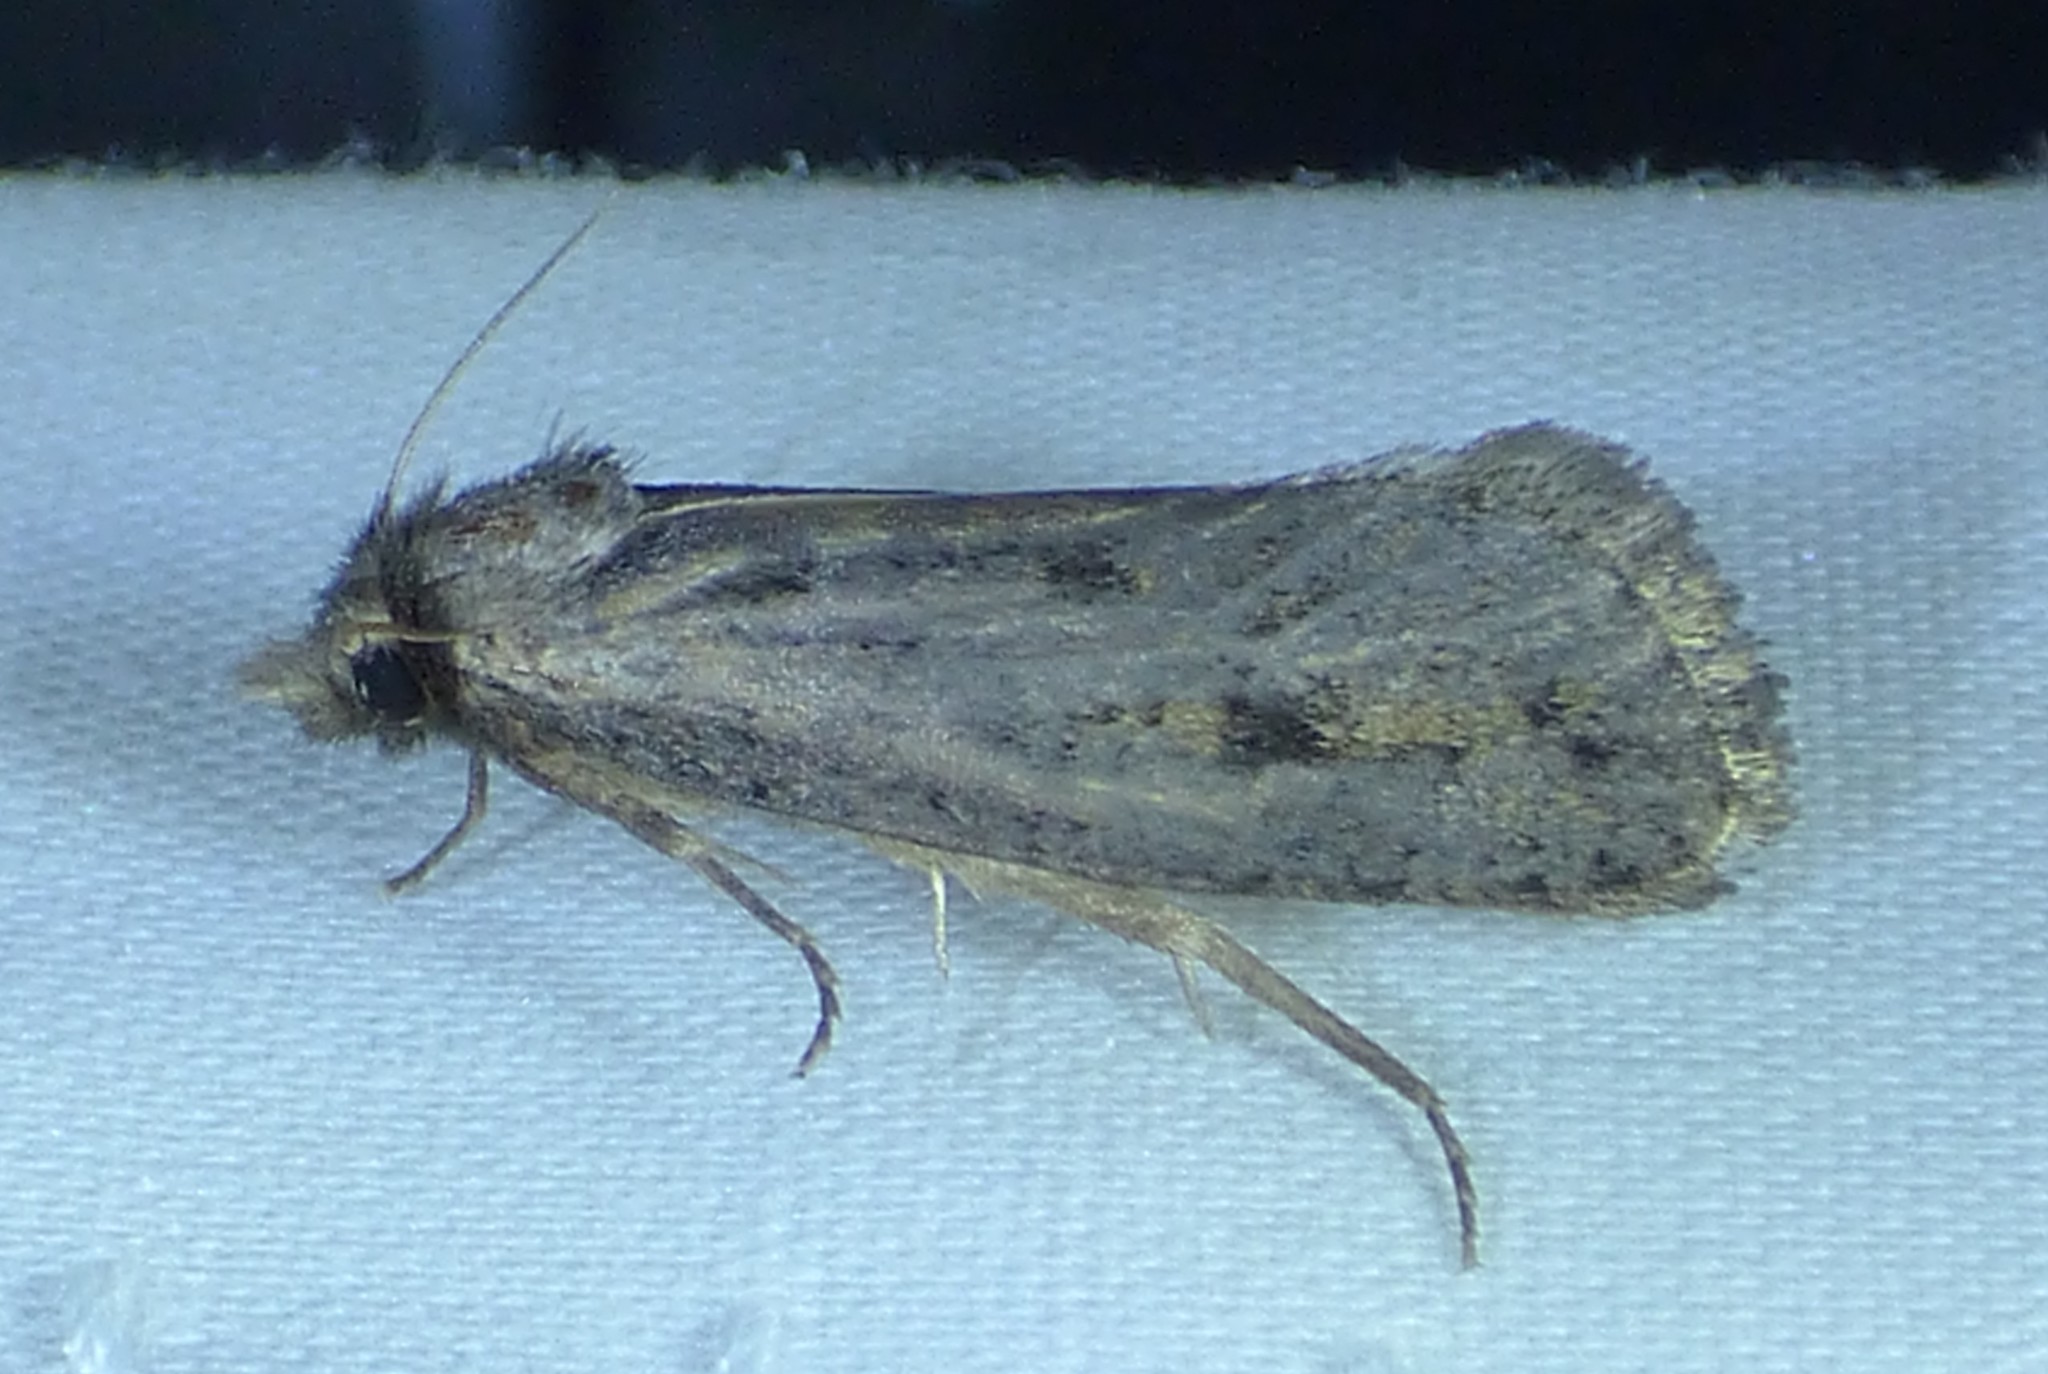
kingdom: Animalia
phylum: Arthropoda
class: Insecta
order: Lepidoptera
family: Tineidae
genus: Acrolophus
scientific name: Acrolophus popeanella
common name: Clemens' grass tubeworm moth
